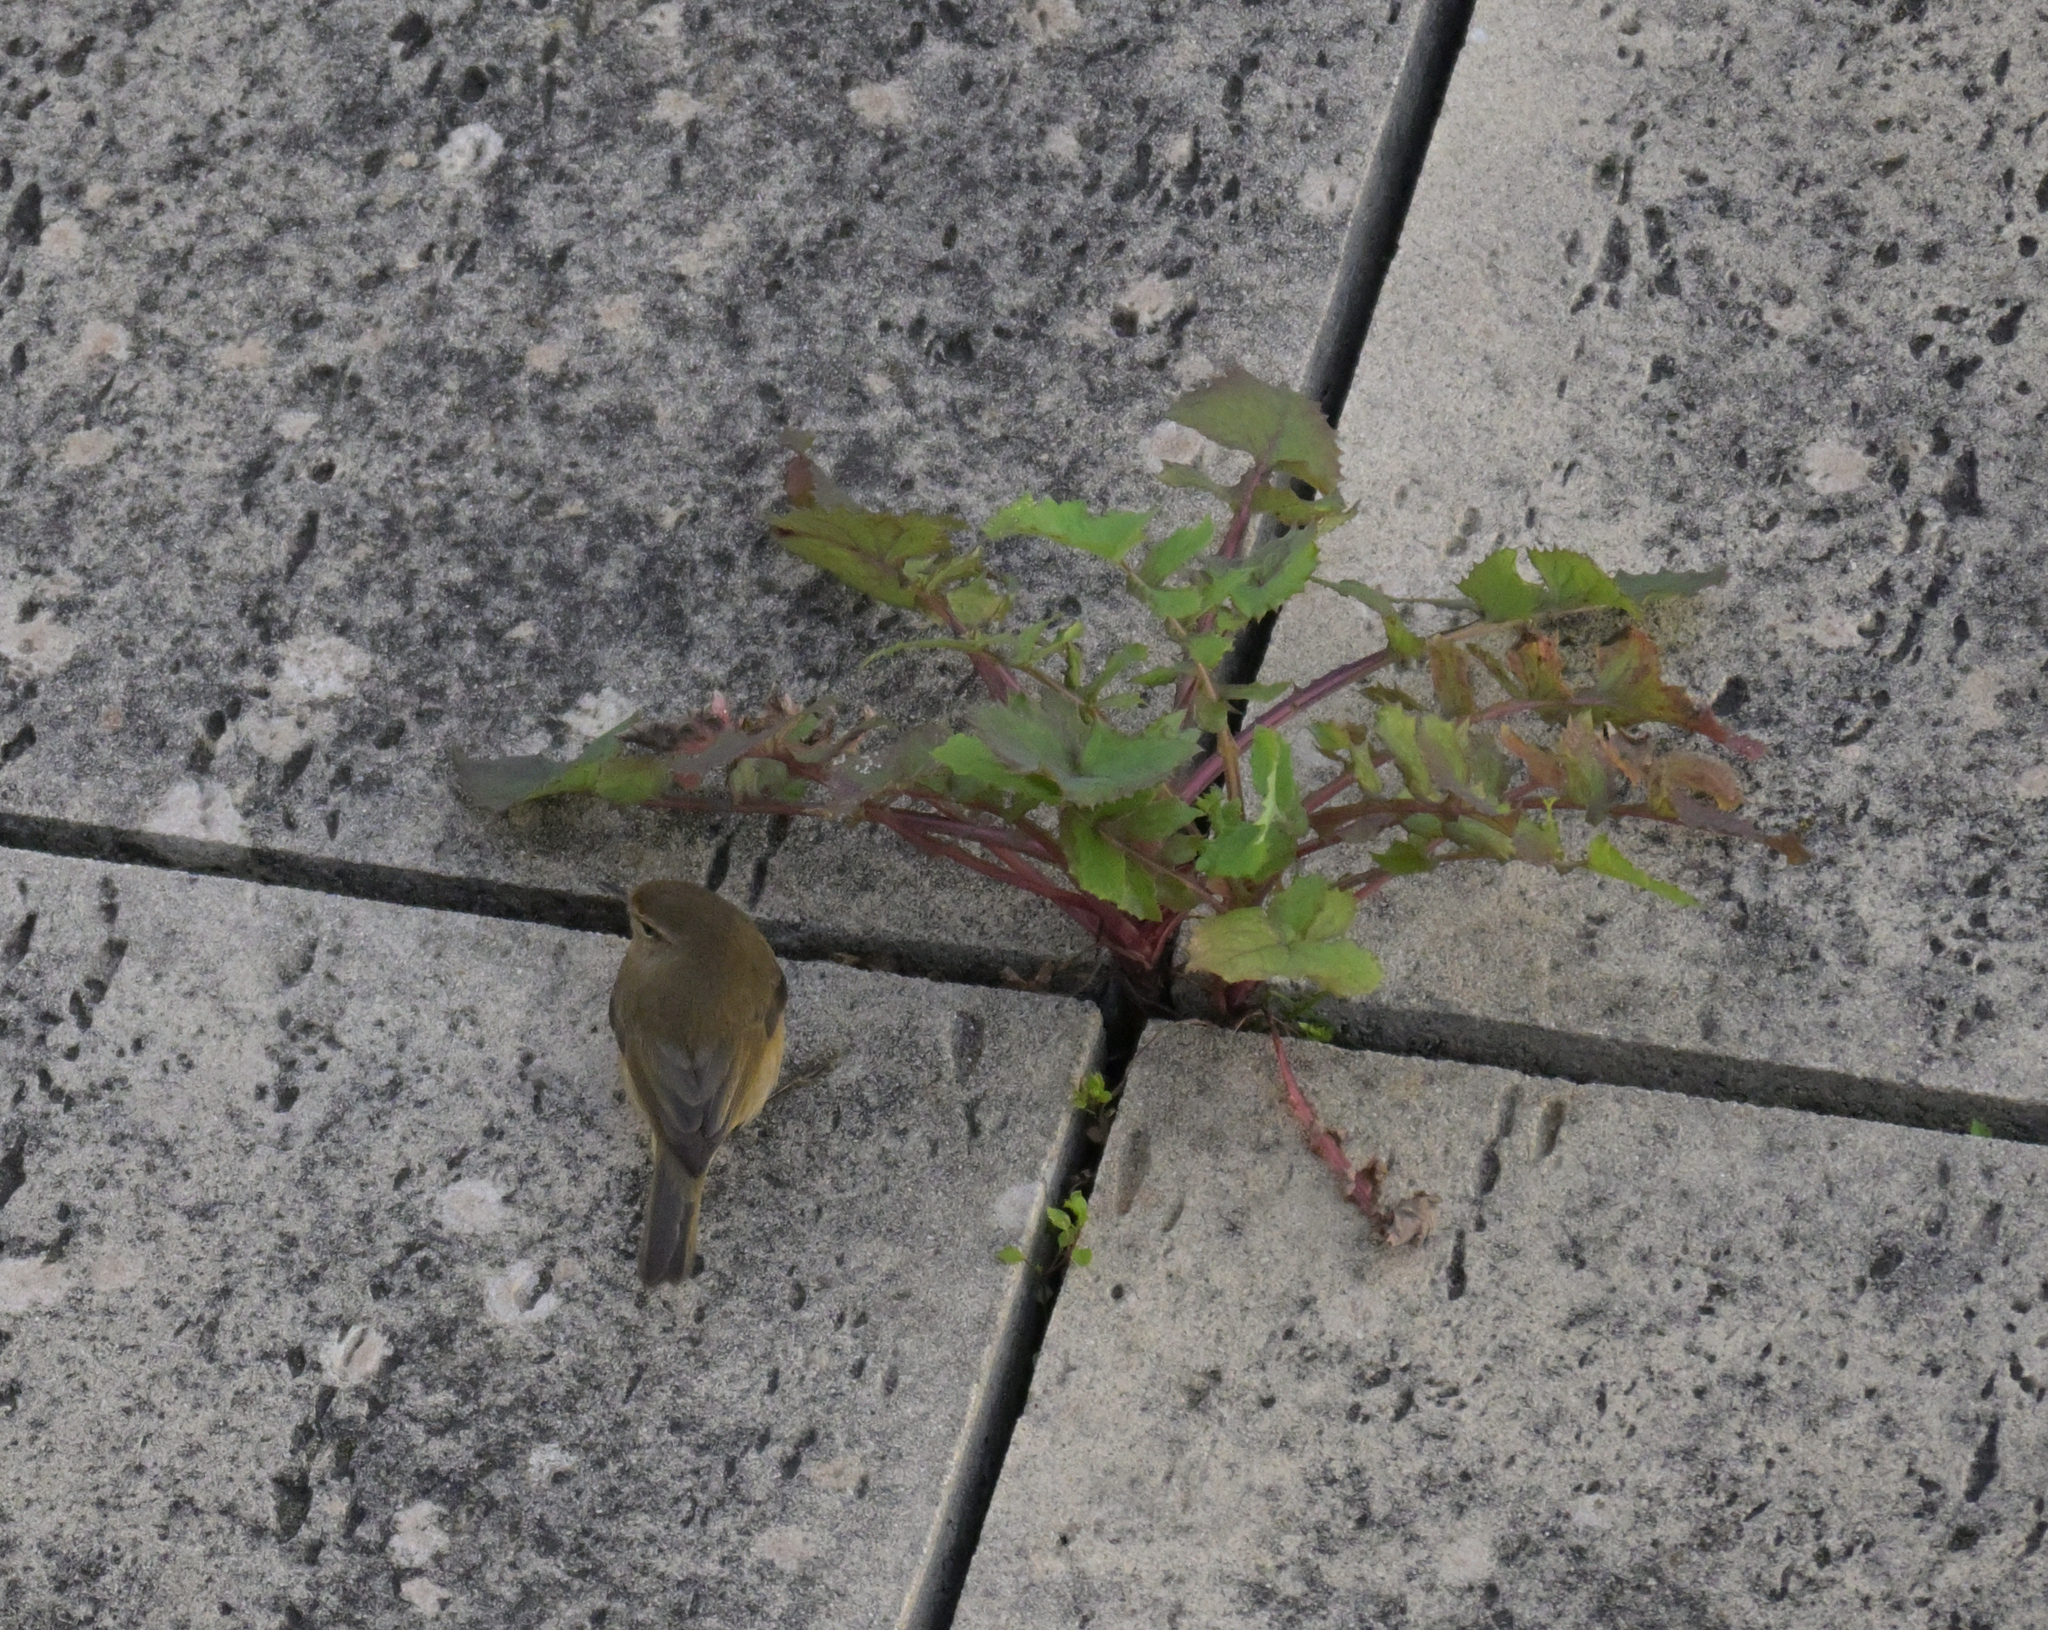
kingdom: Animalia
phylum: Chordata
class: Aves
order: Passeriformes
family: Phylloscopidae
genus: Phylloscopus
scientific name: Phylloscopus collybita
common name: Common chiffchaff
